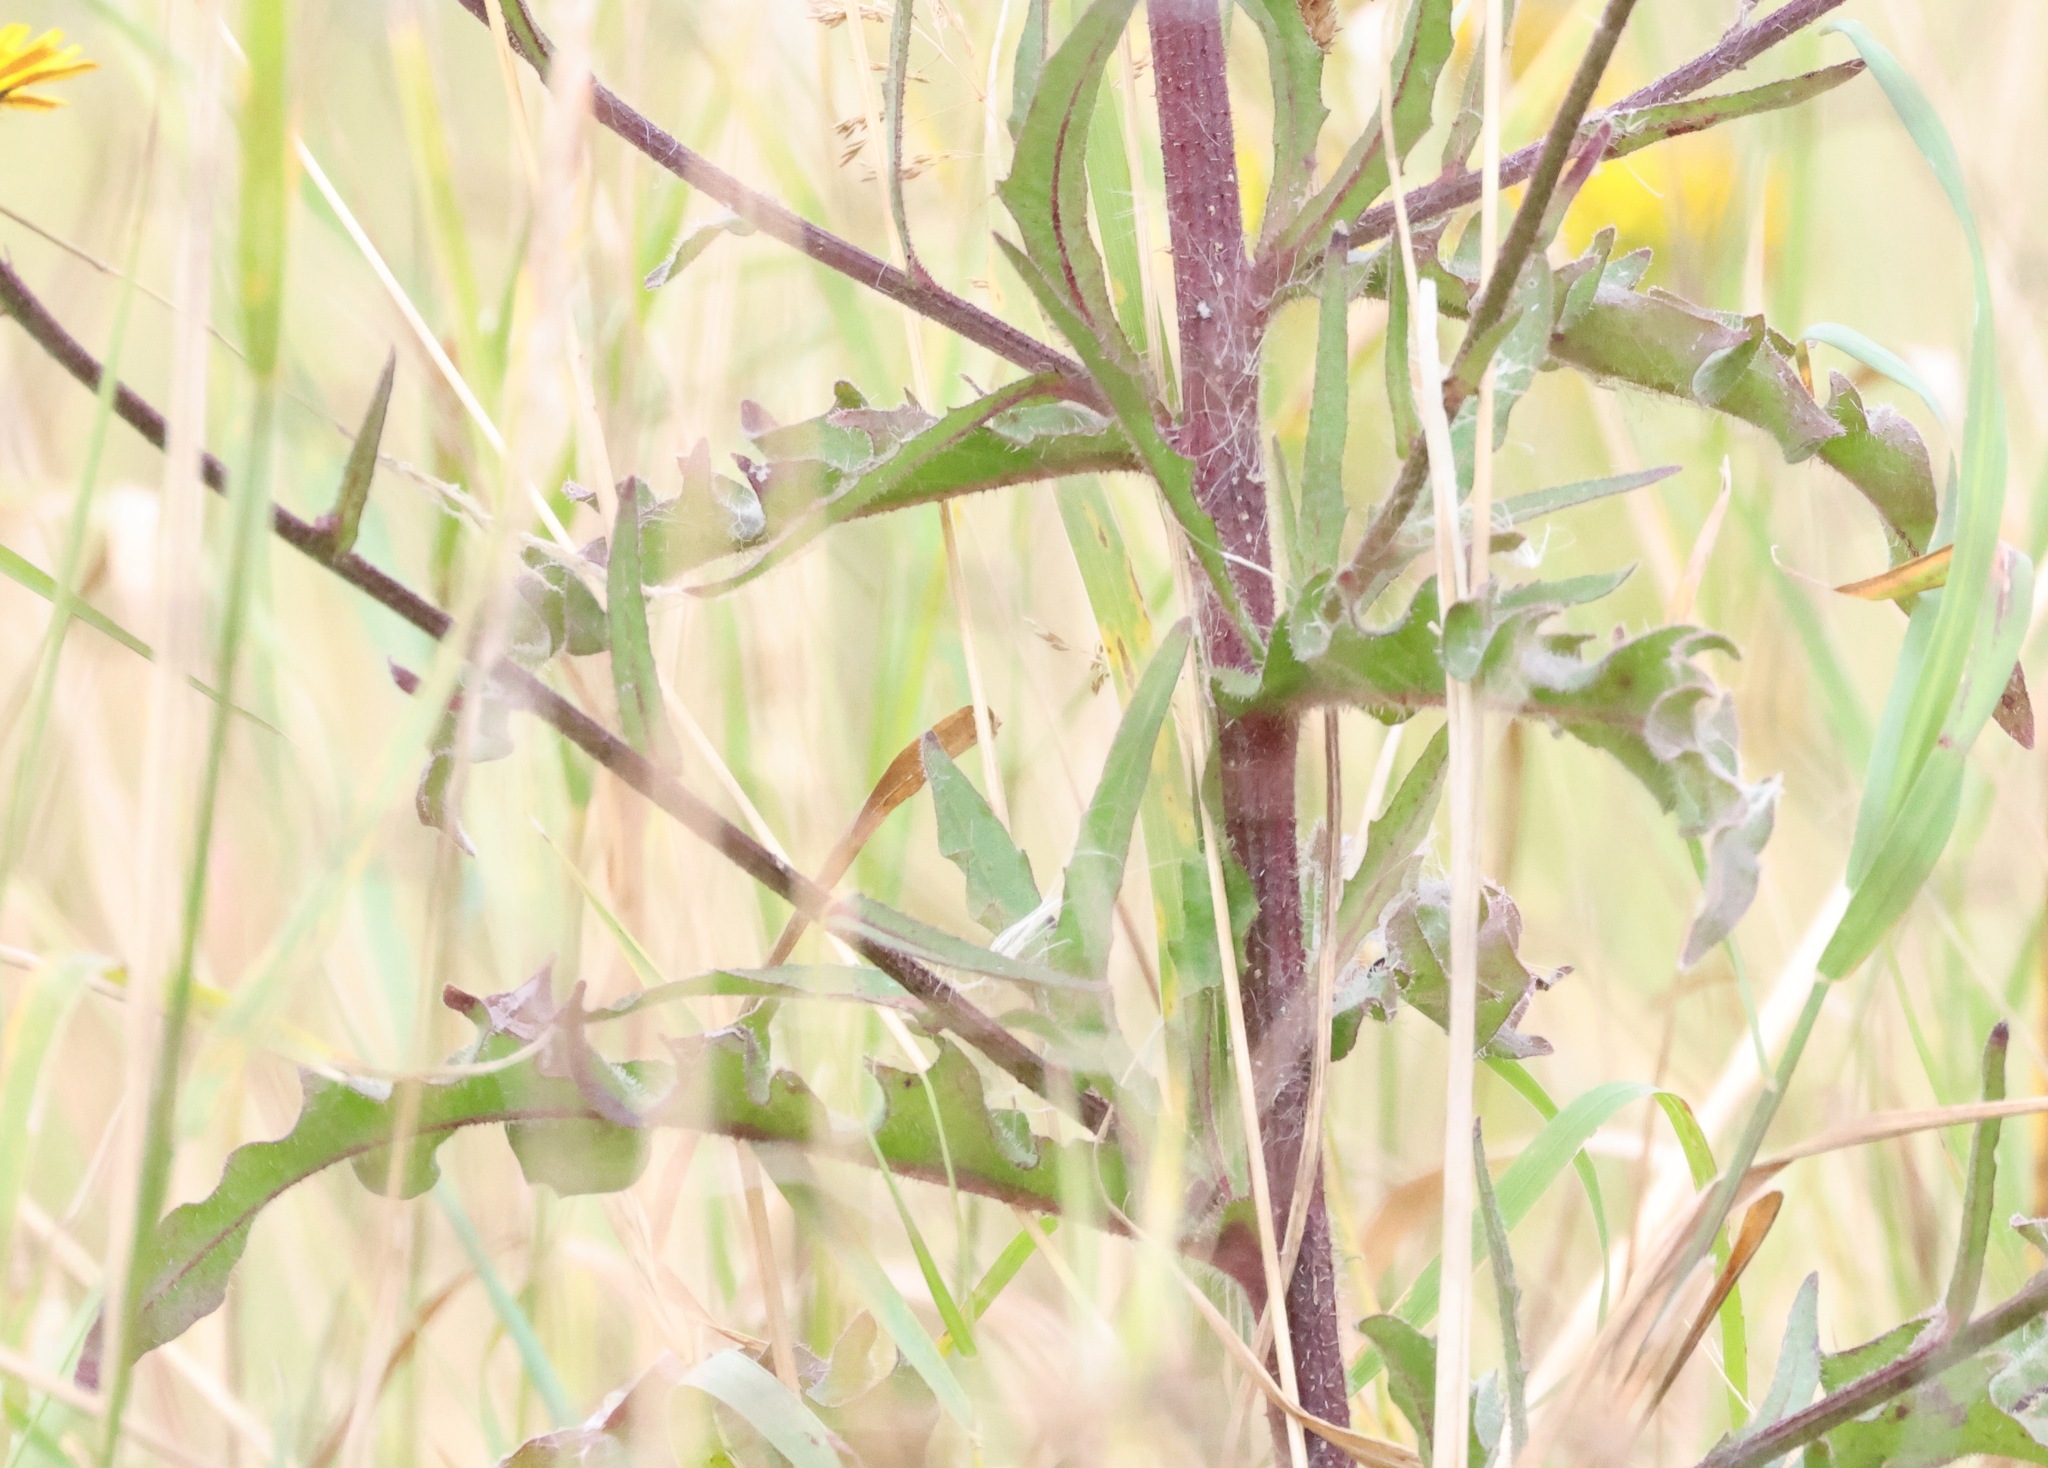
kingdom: Plantae
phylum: Tracheophyta
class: Magnoliopsida
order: Asterales
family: Asteraceae
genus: Picris
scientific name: Picris hieracioides
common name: Hawkweed oxtongue
